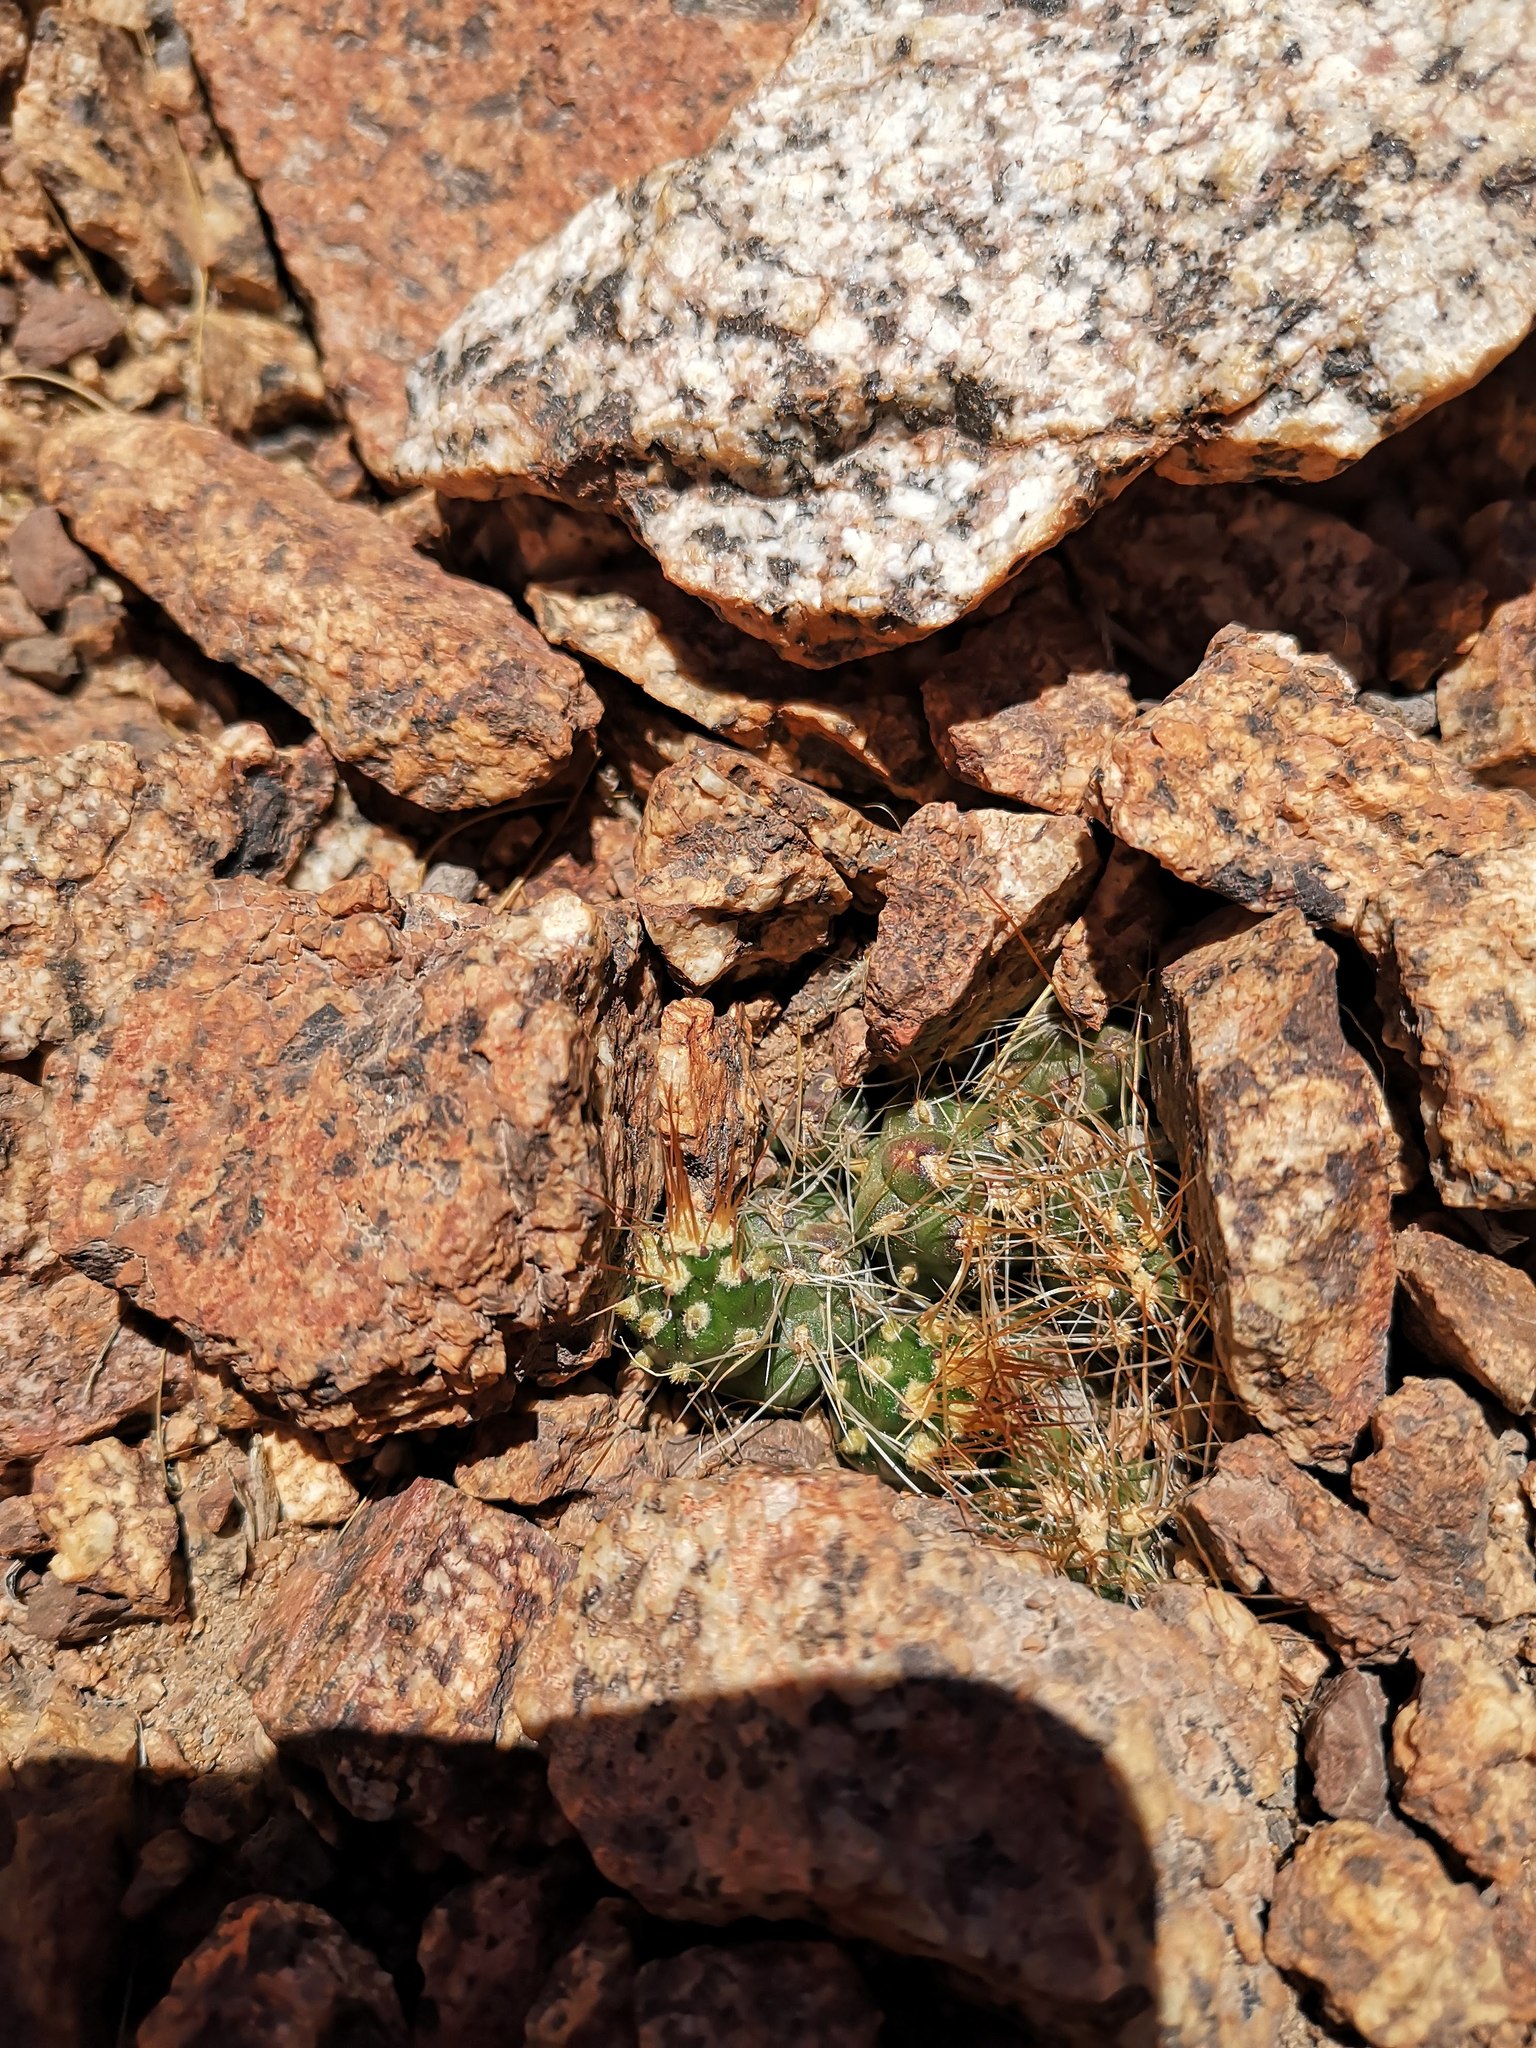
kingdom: Plantae
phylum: Tracheophyta
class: Magnoliopsida
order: Caryophyllales
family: Cactaceae
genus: Cumulopuntia
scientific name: Cumulopuntia glomerata
